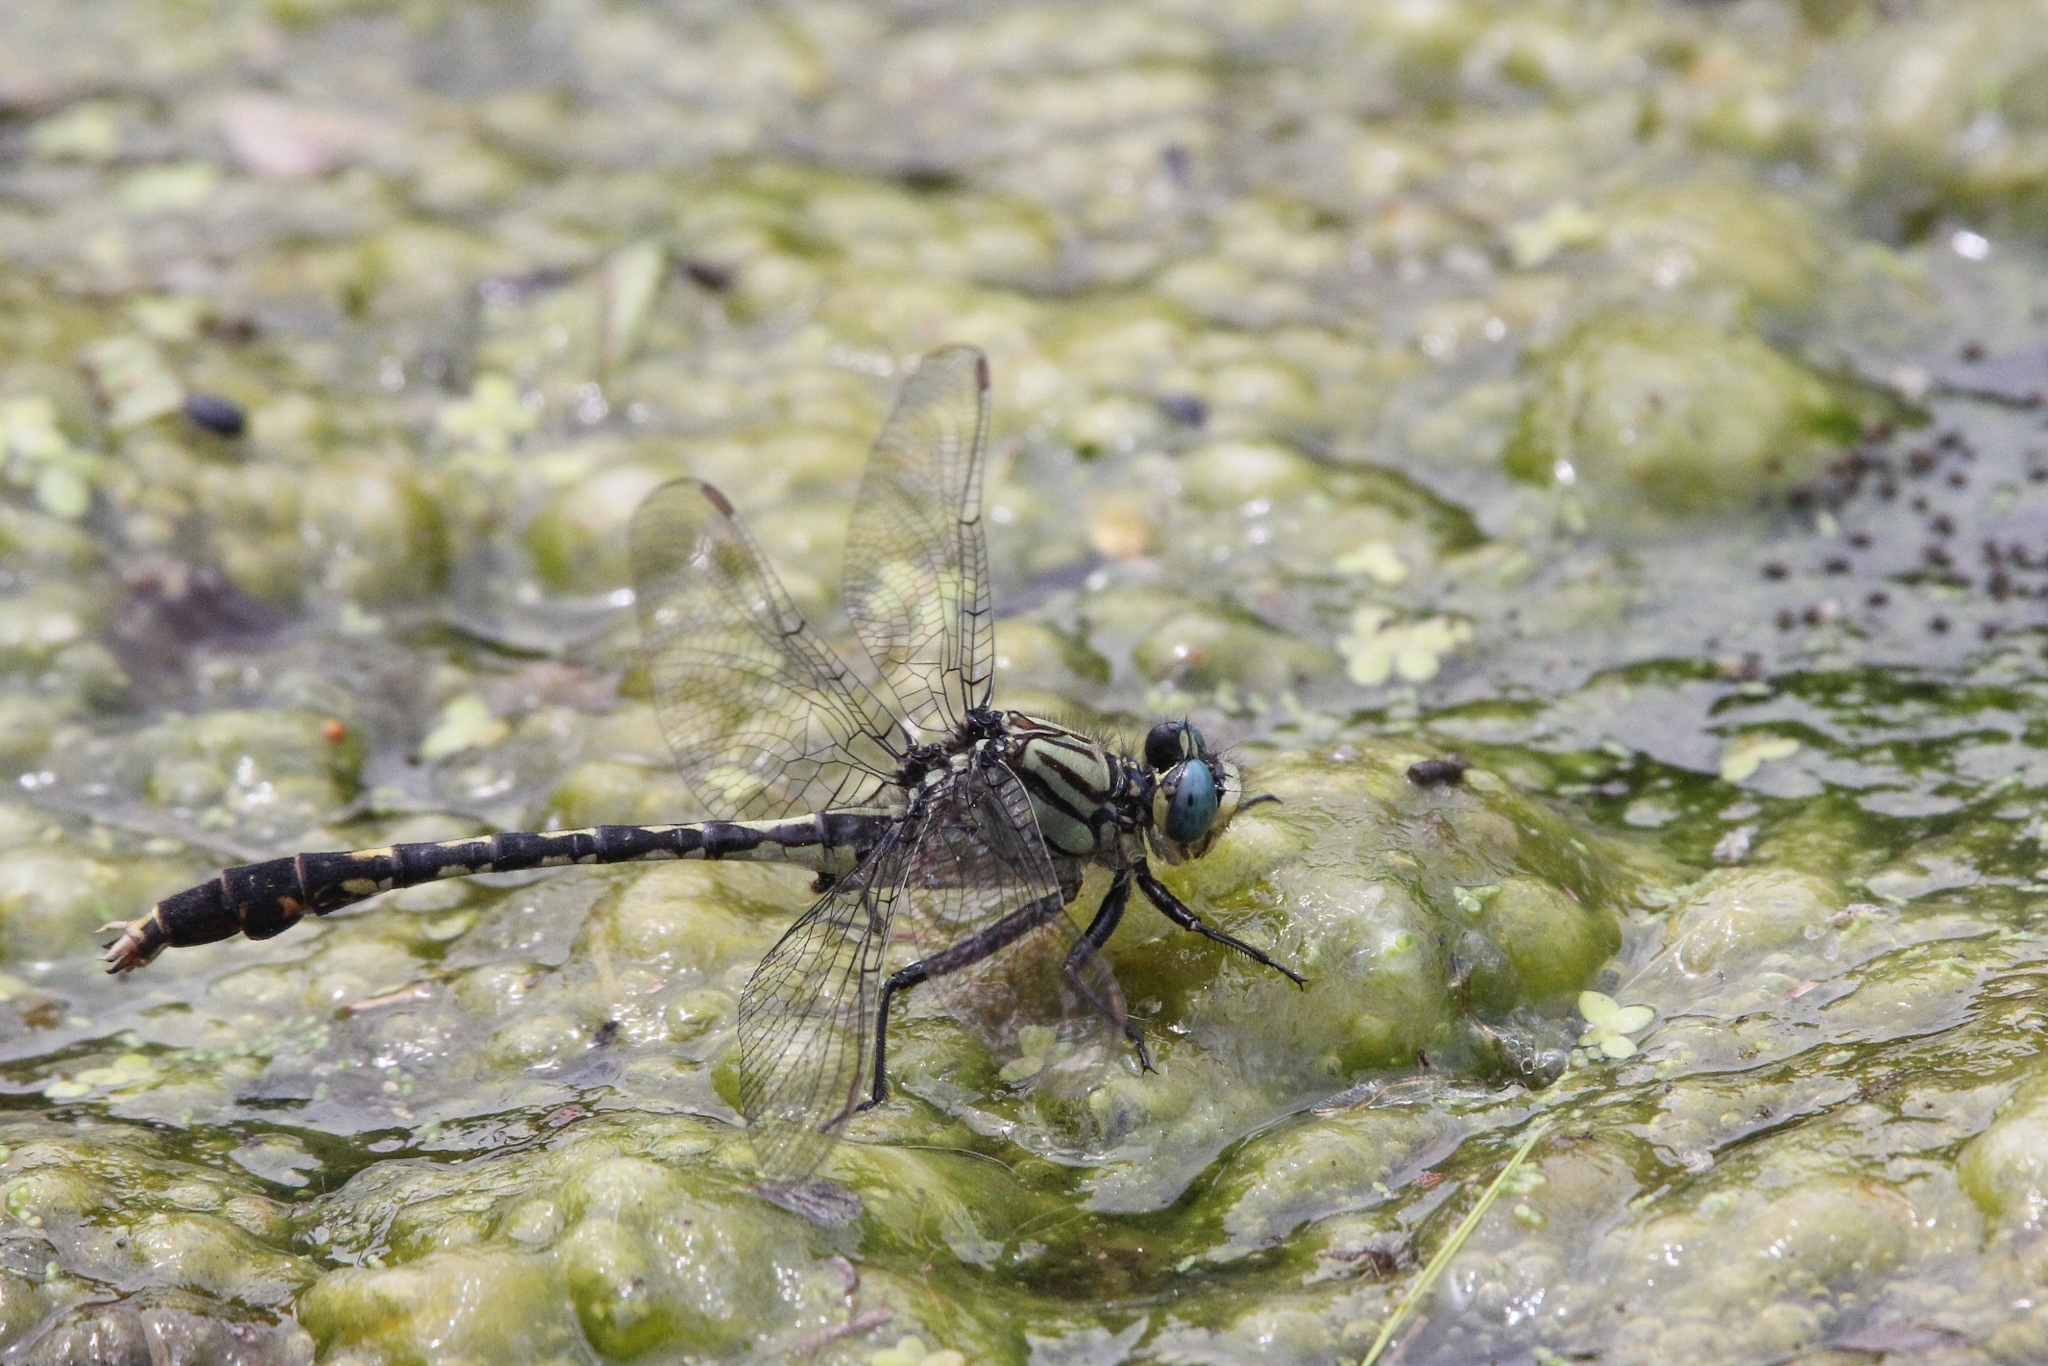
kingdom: Animalia
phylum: Arthropoda
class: Insecta
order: Odonata
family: Gomphidae
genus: Arigomphus
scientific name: Arigomphus villosipes
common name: Unicorn clubtail
